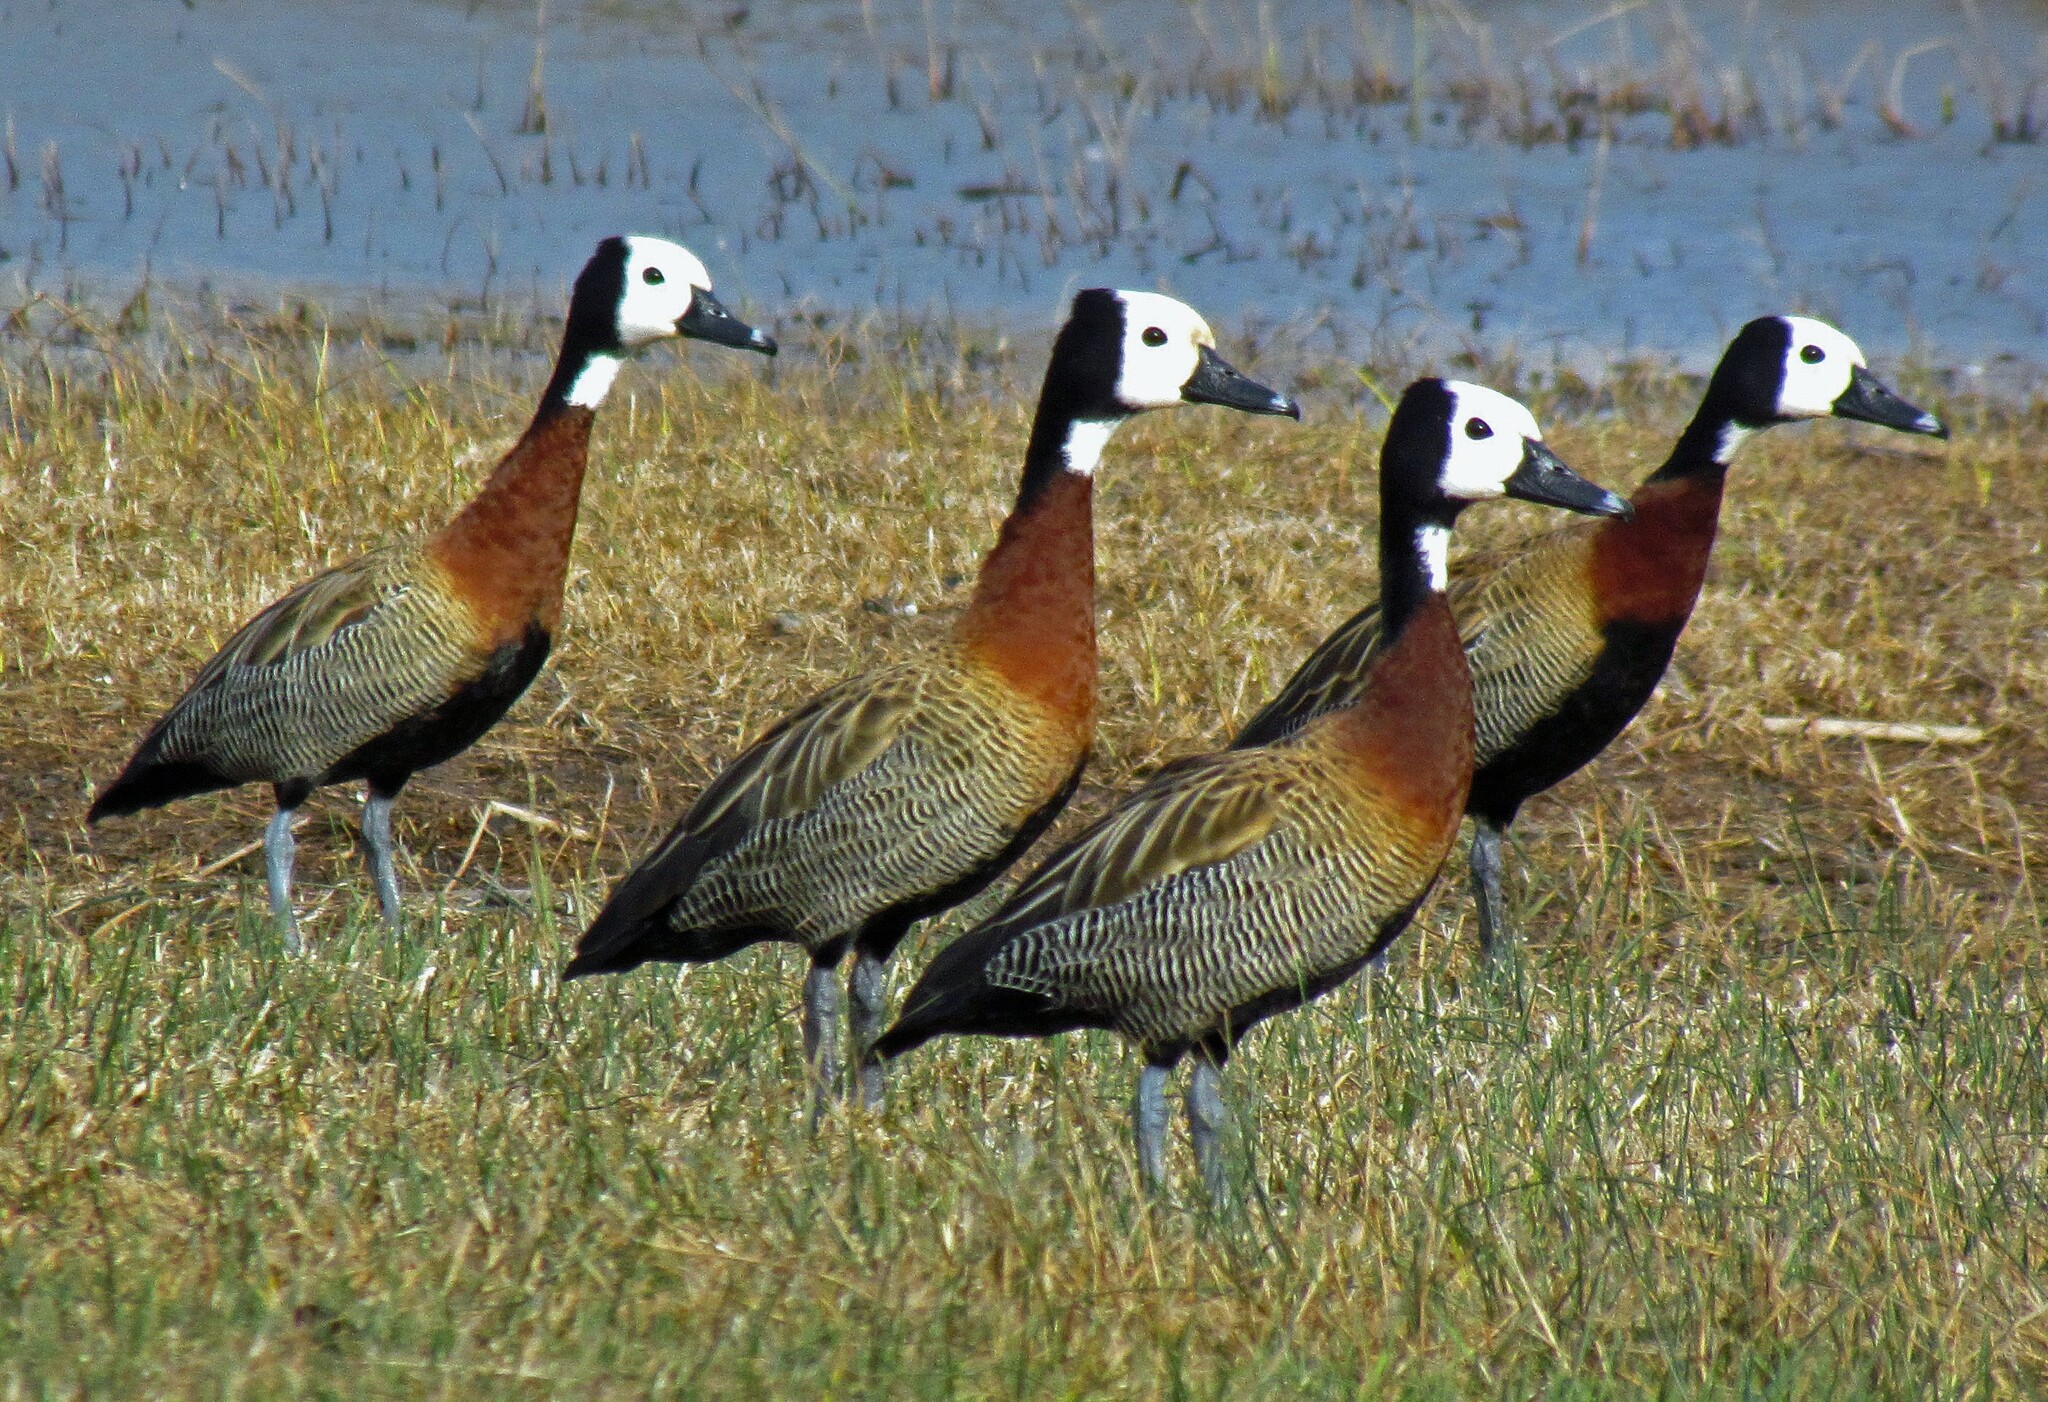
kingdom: Animalia
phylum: Chordata
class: Aves
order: Anseriformes
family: Anatidae
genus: Dendrocygna
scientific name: Dendrocygna viduata
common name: White-faced whistling duck
